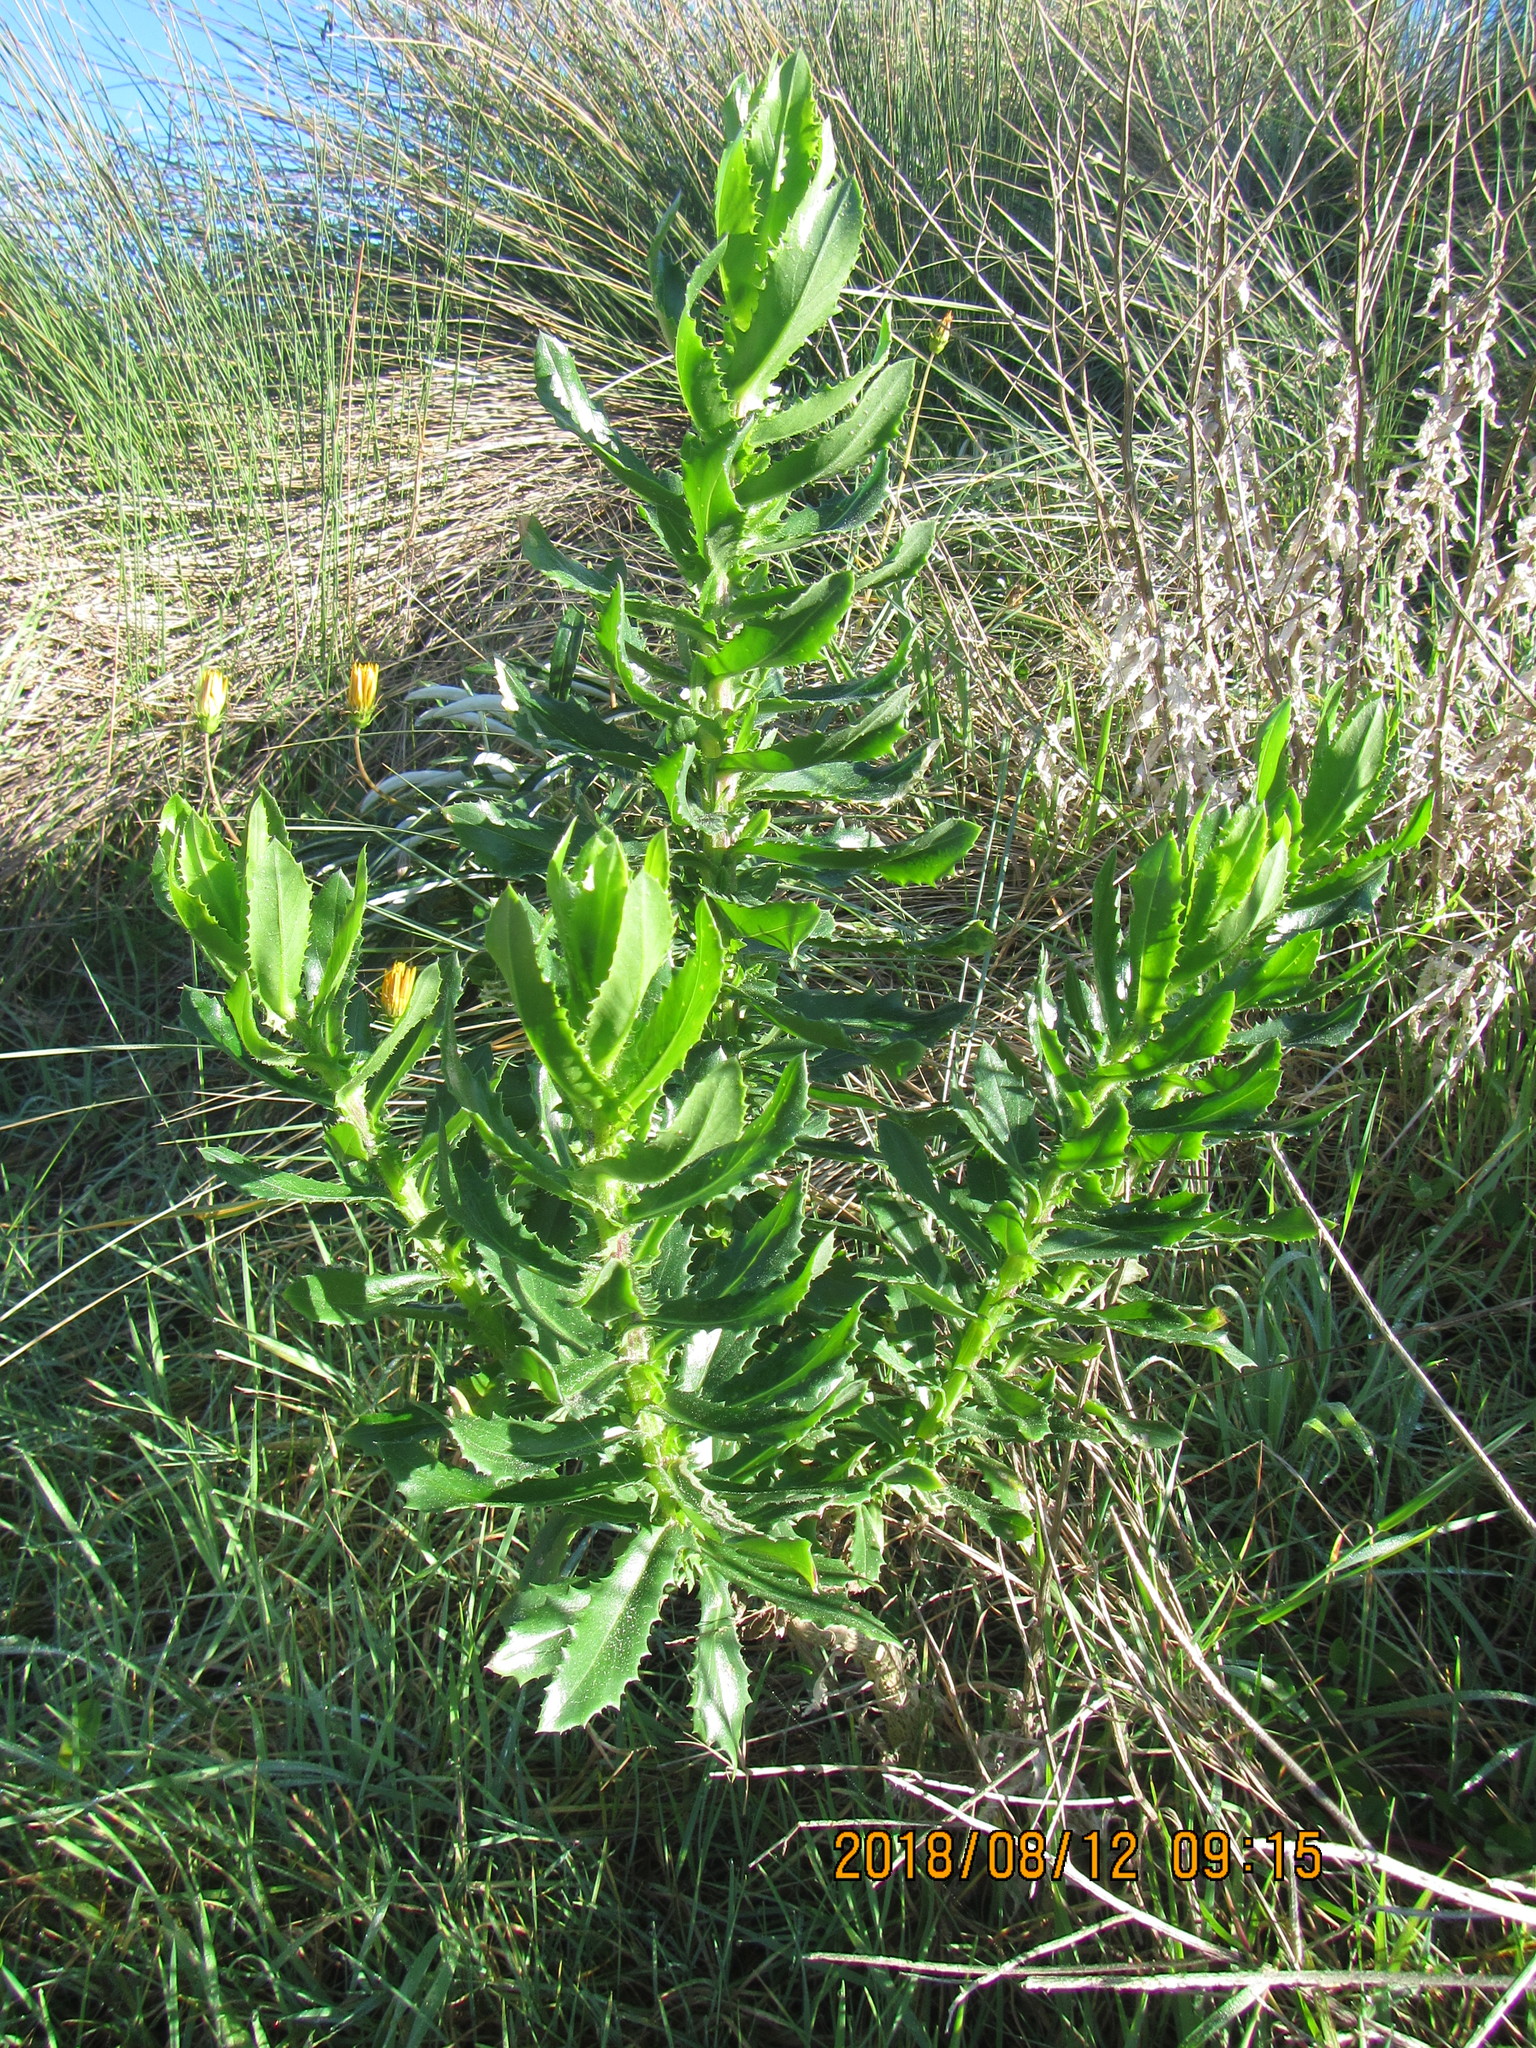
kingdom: Plantae
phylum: Tracheophyta
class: Magnoliopsida
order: Asterales
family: Asteraceae
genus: Senecio
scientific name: Senecio glastifolius
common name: Woad-leaved ragwort
